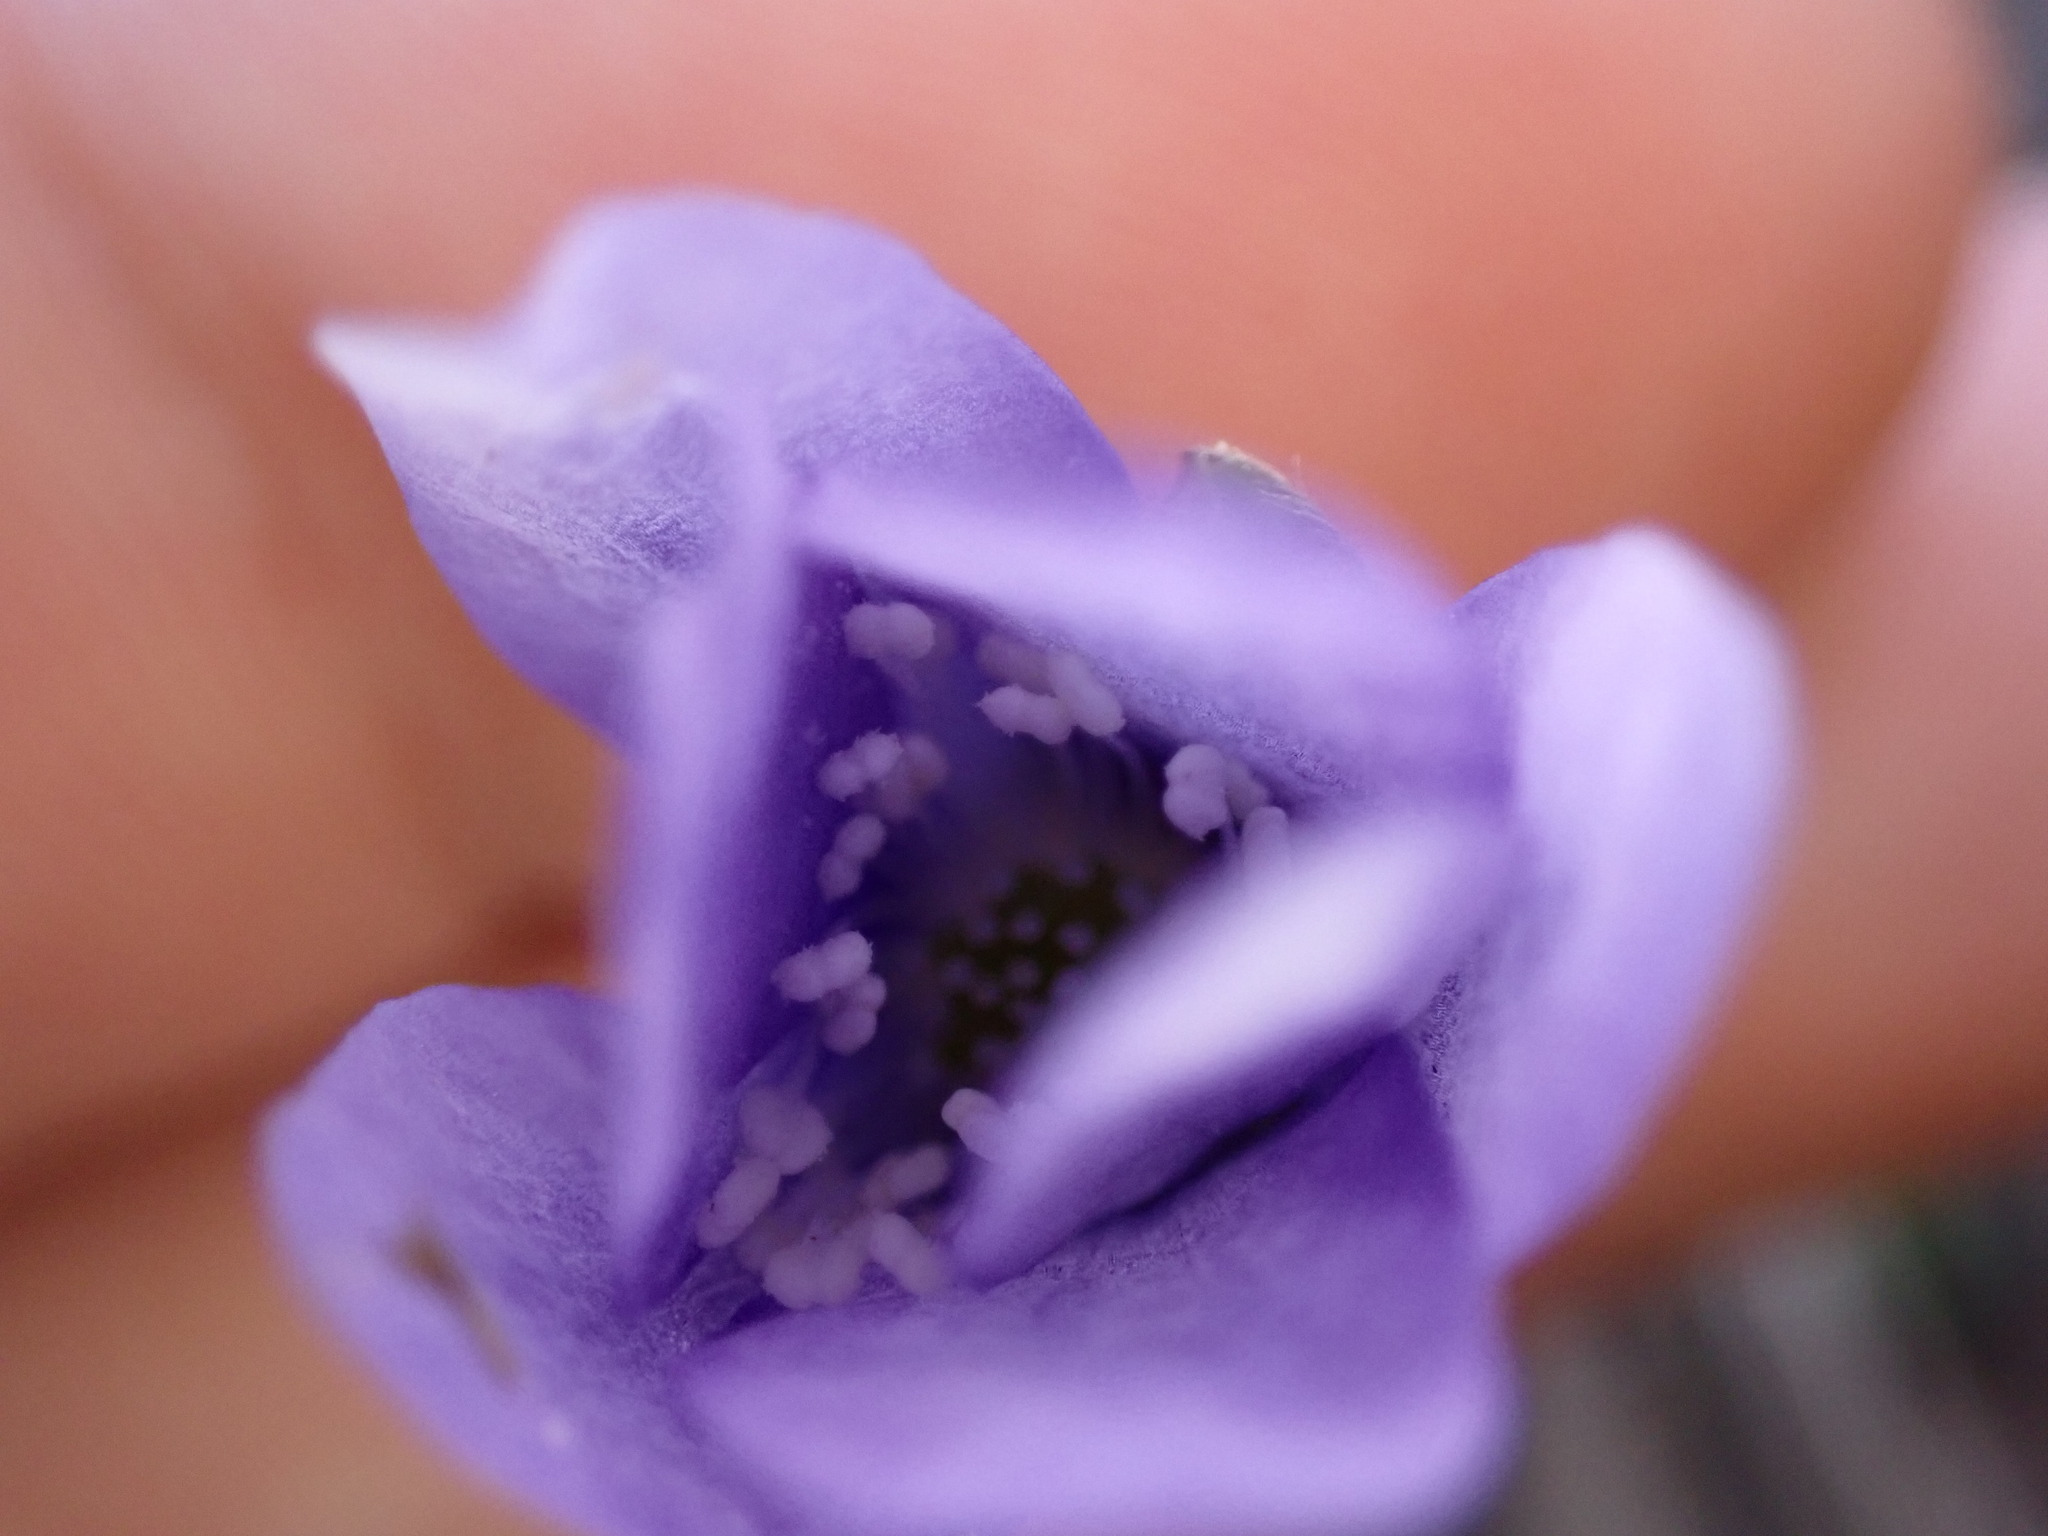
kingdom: Plantae
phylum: Tracheophyta
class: Magnoliopsida
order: Ranunculales
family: Ranunculaceae
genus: Hepatica
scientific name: Hepatica nobilis
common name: Liverleaf
